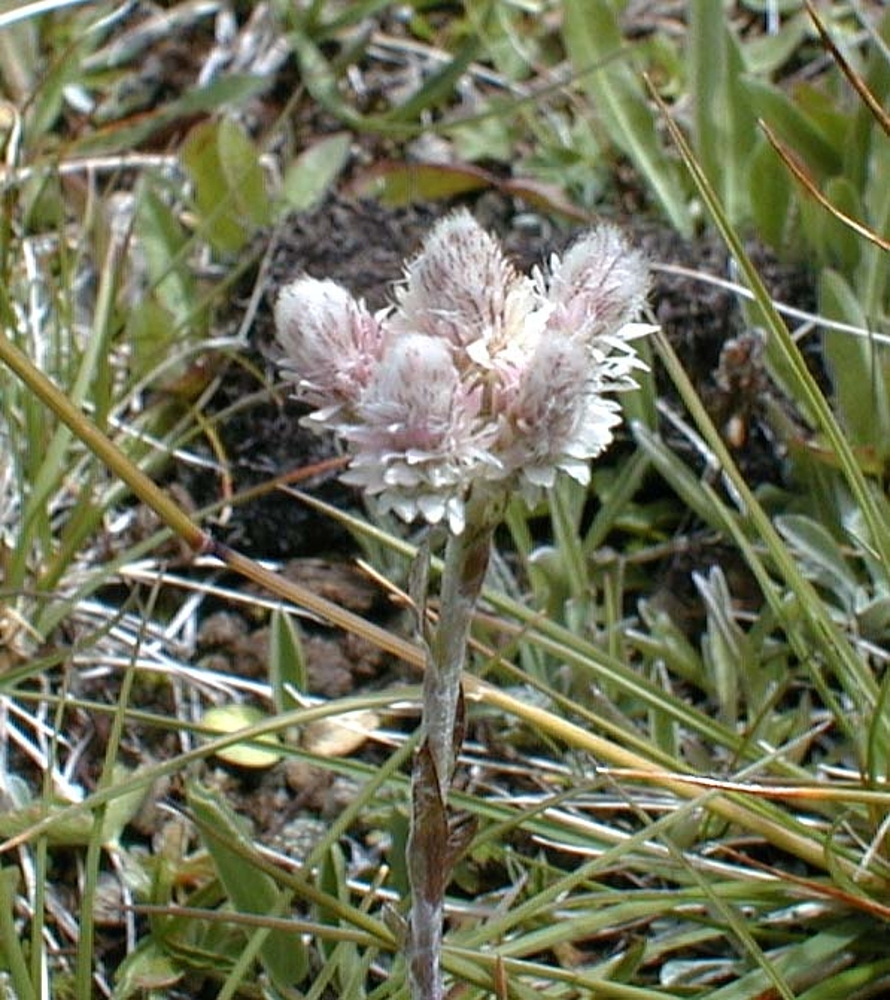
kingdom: Plantae
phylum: Tracheophyta
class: Magnoliopsida
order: Asterales
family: Asteraceae
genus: Antennaria
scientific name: Antennaria dioica
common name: Mountain everlasting
